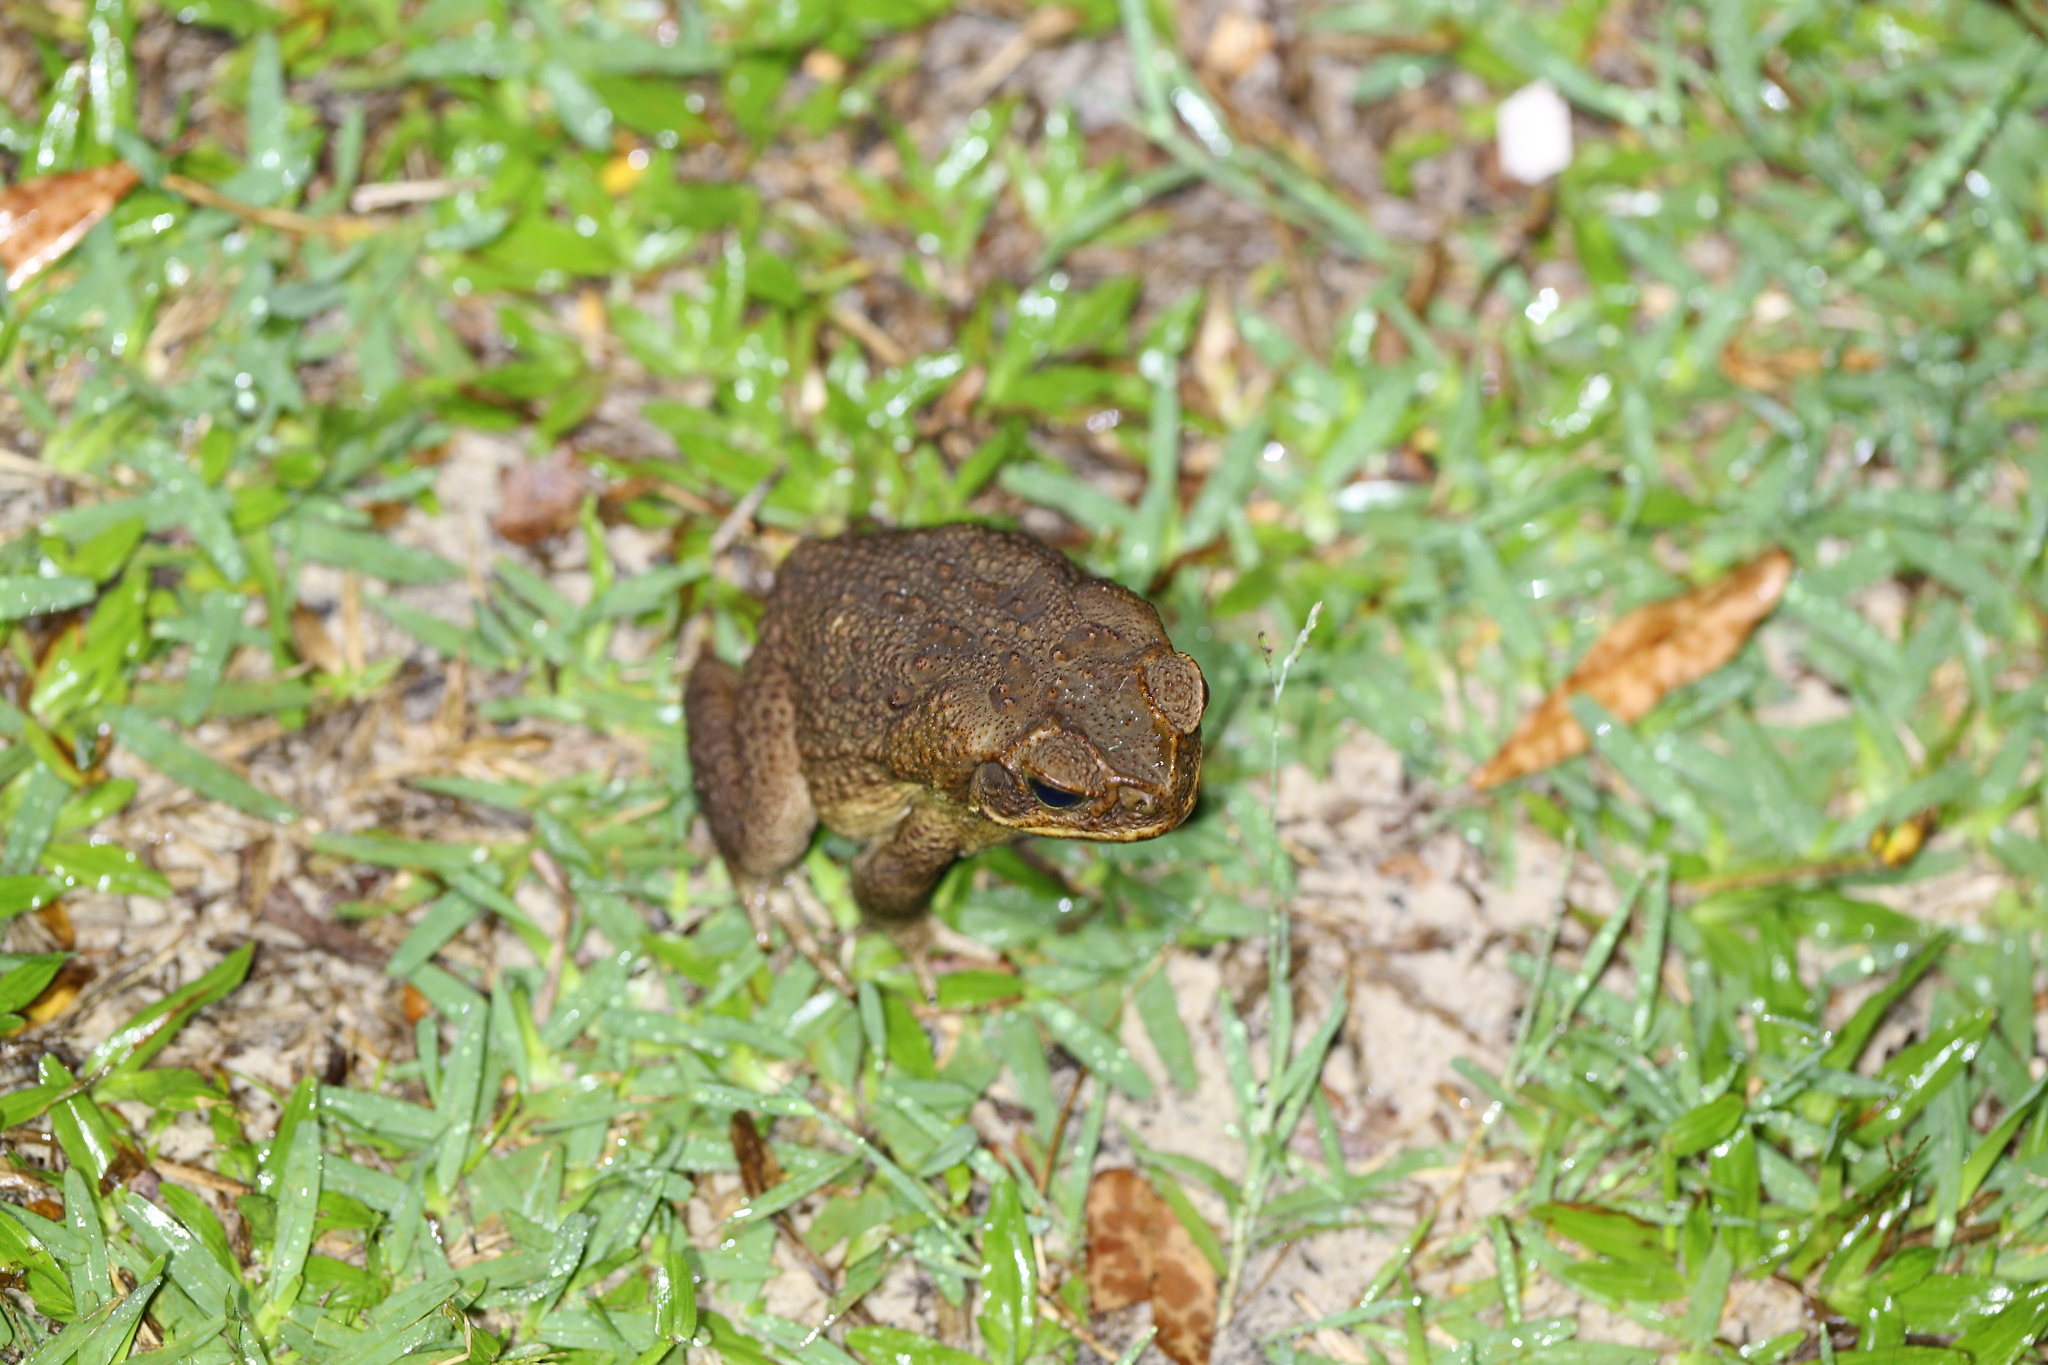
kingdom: Animalia
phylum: Chordata
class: Amphibia
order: Anura
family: Bufonidae
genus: Rhinella
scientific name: Rhinella marina
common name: Cane toad
